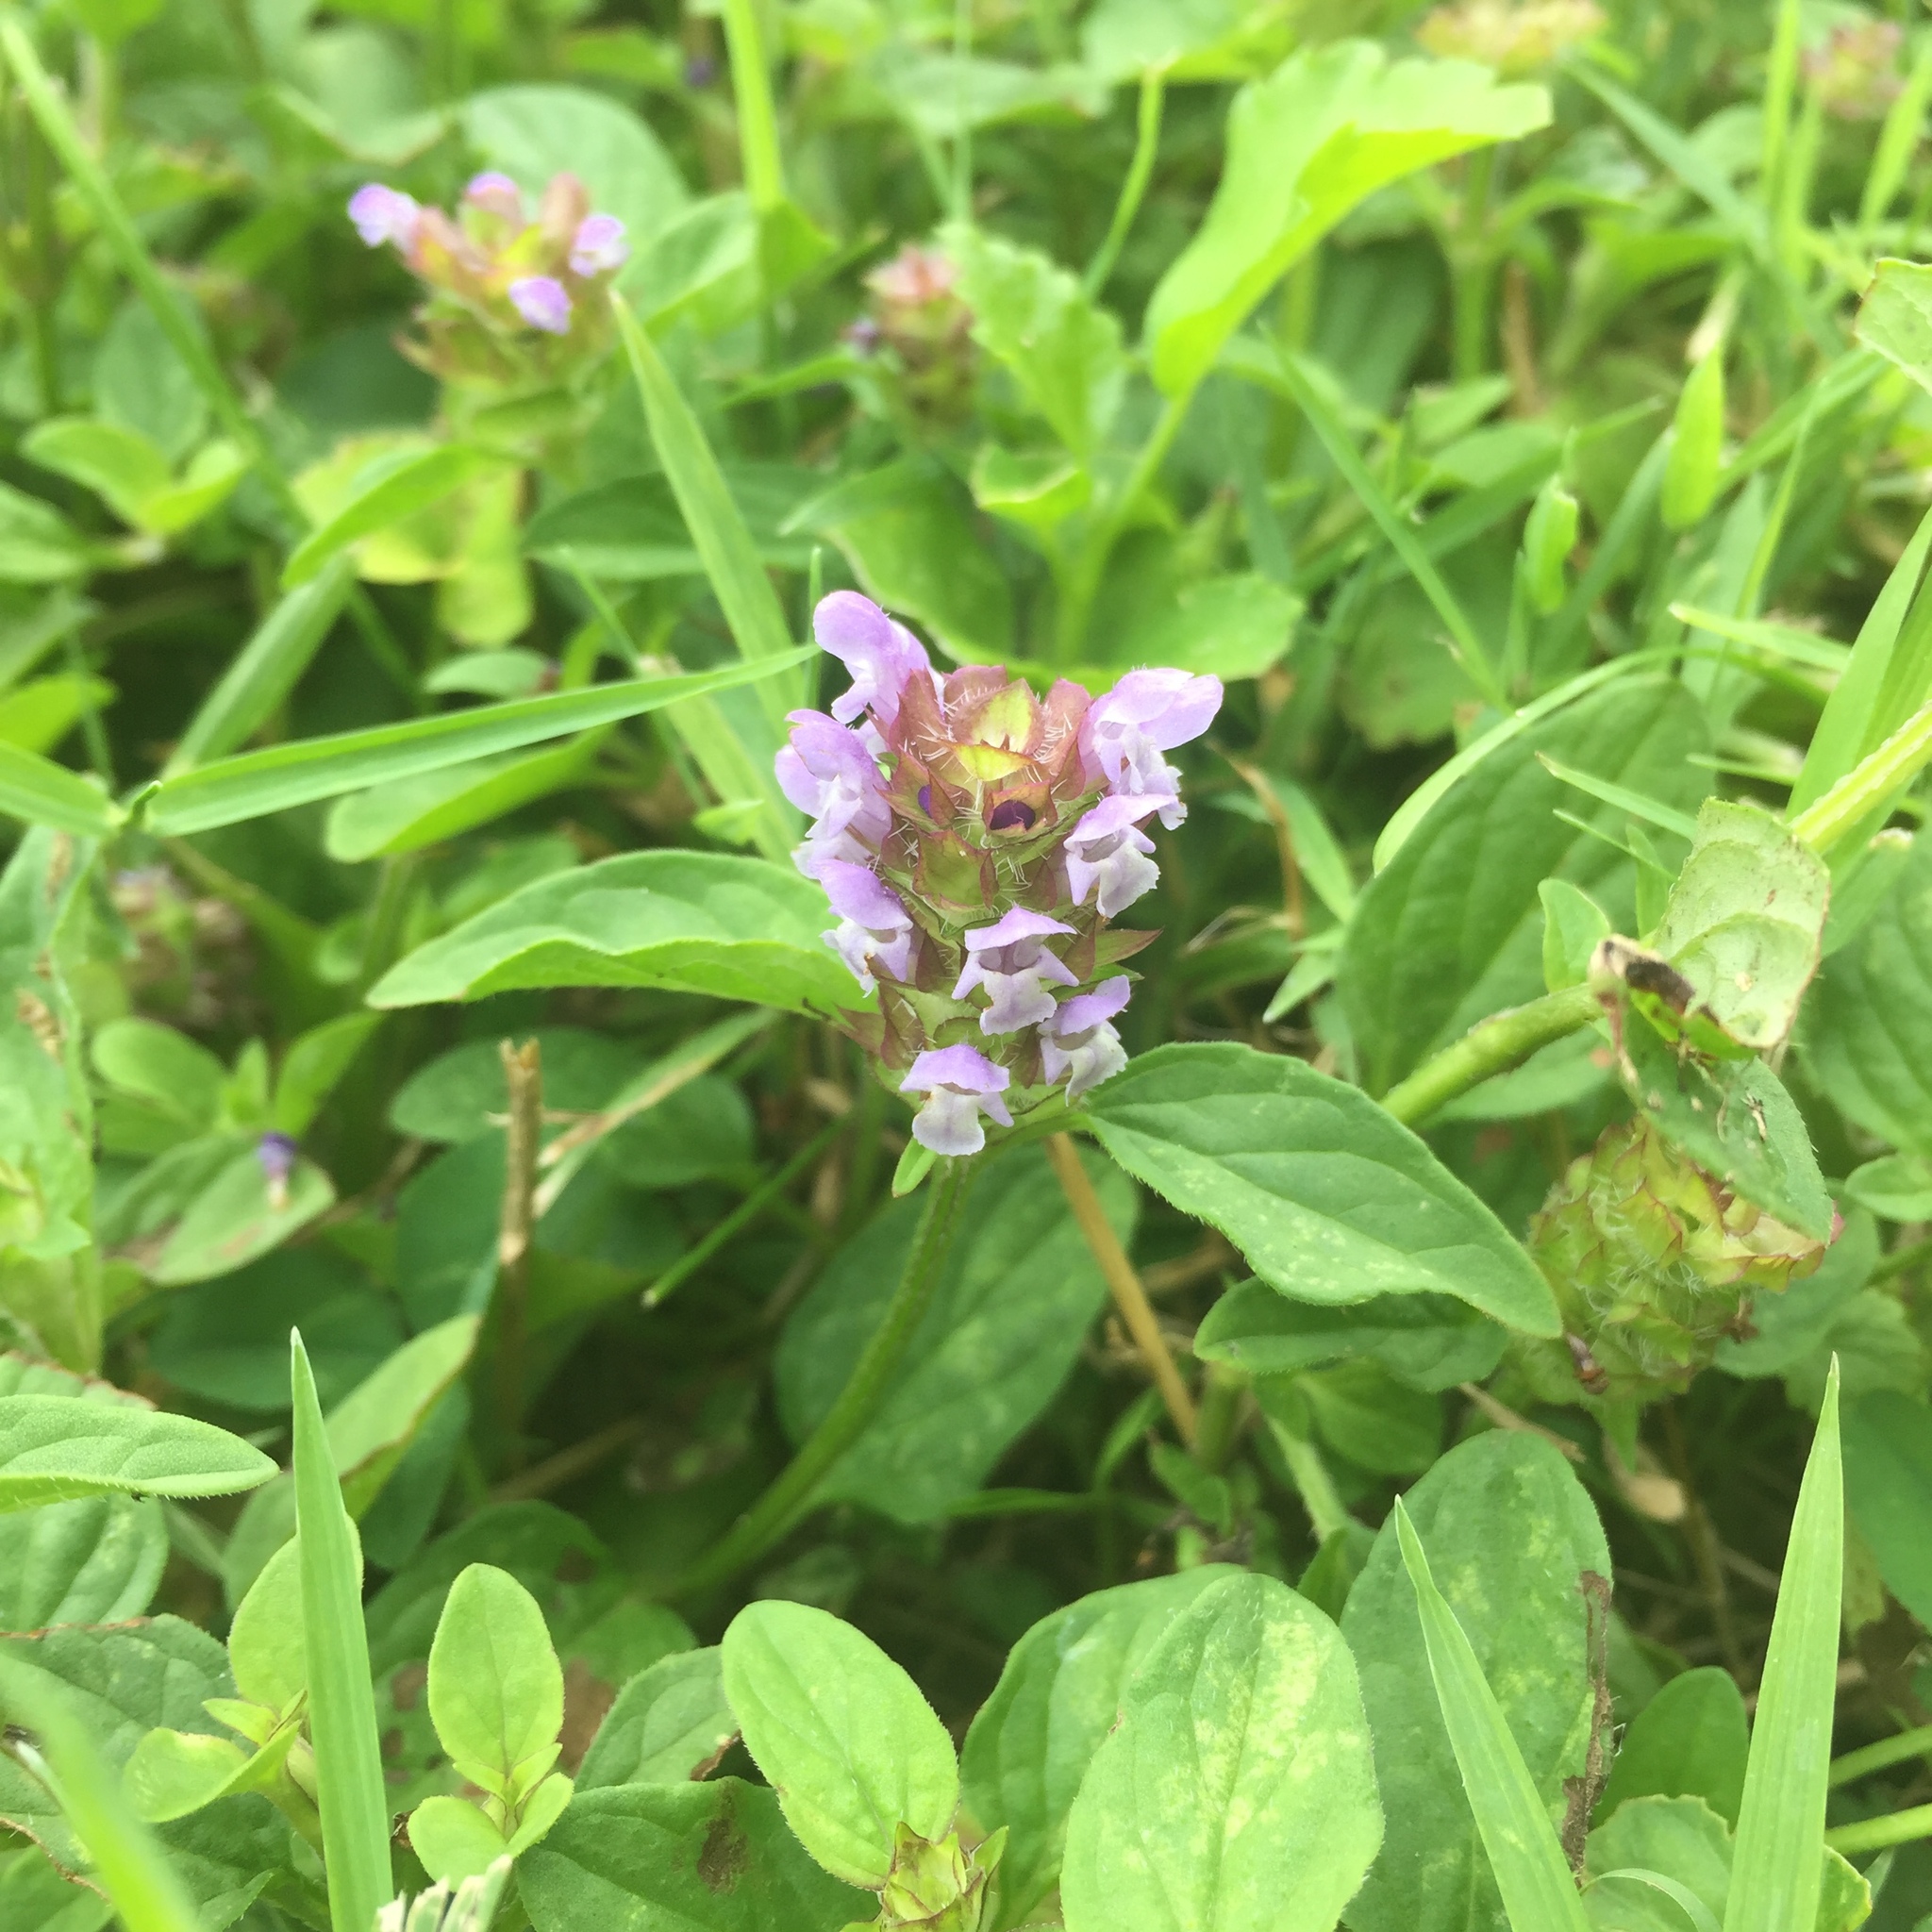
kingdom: Plantae
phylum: Tracheophyta
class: Magnoliopsida
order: Lamiales
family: Lamiaceae
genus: Prunella
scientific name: Prunella vulgaris
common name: Heal-all
